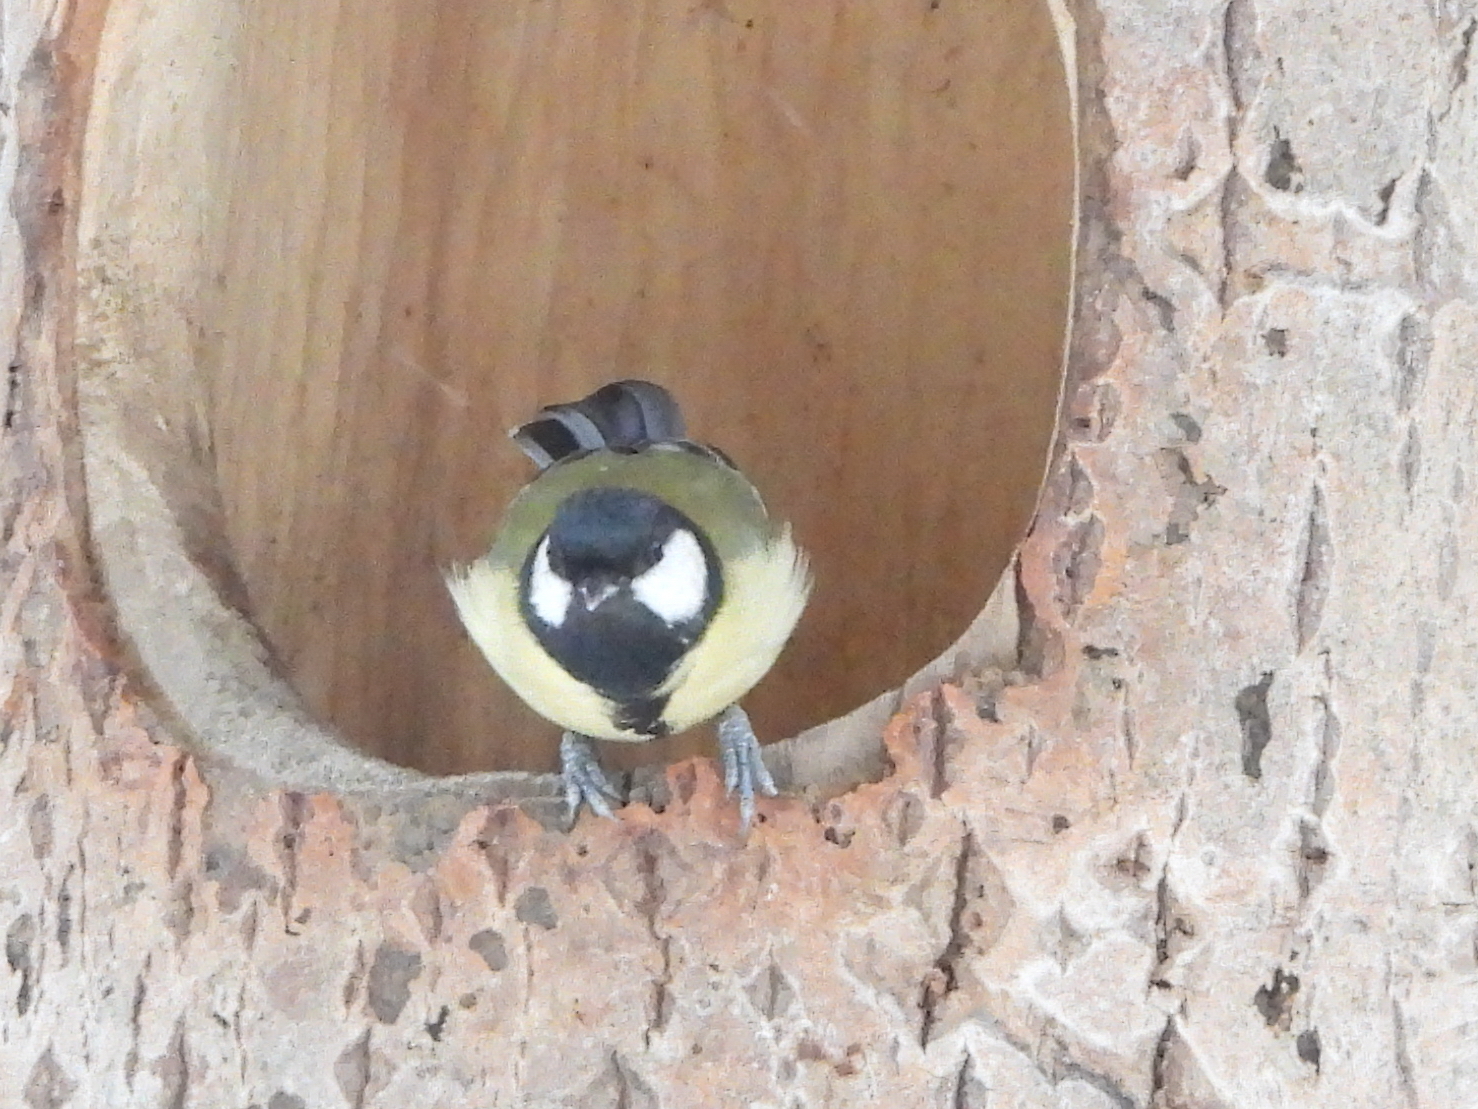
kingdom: Animalia
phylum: Chordata
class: Aves
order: Passeriformes
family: Paridae
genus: Parus
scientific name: Parus major
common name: Great tit
